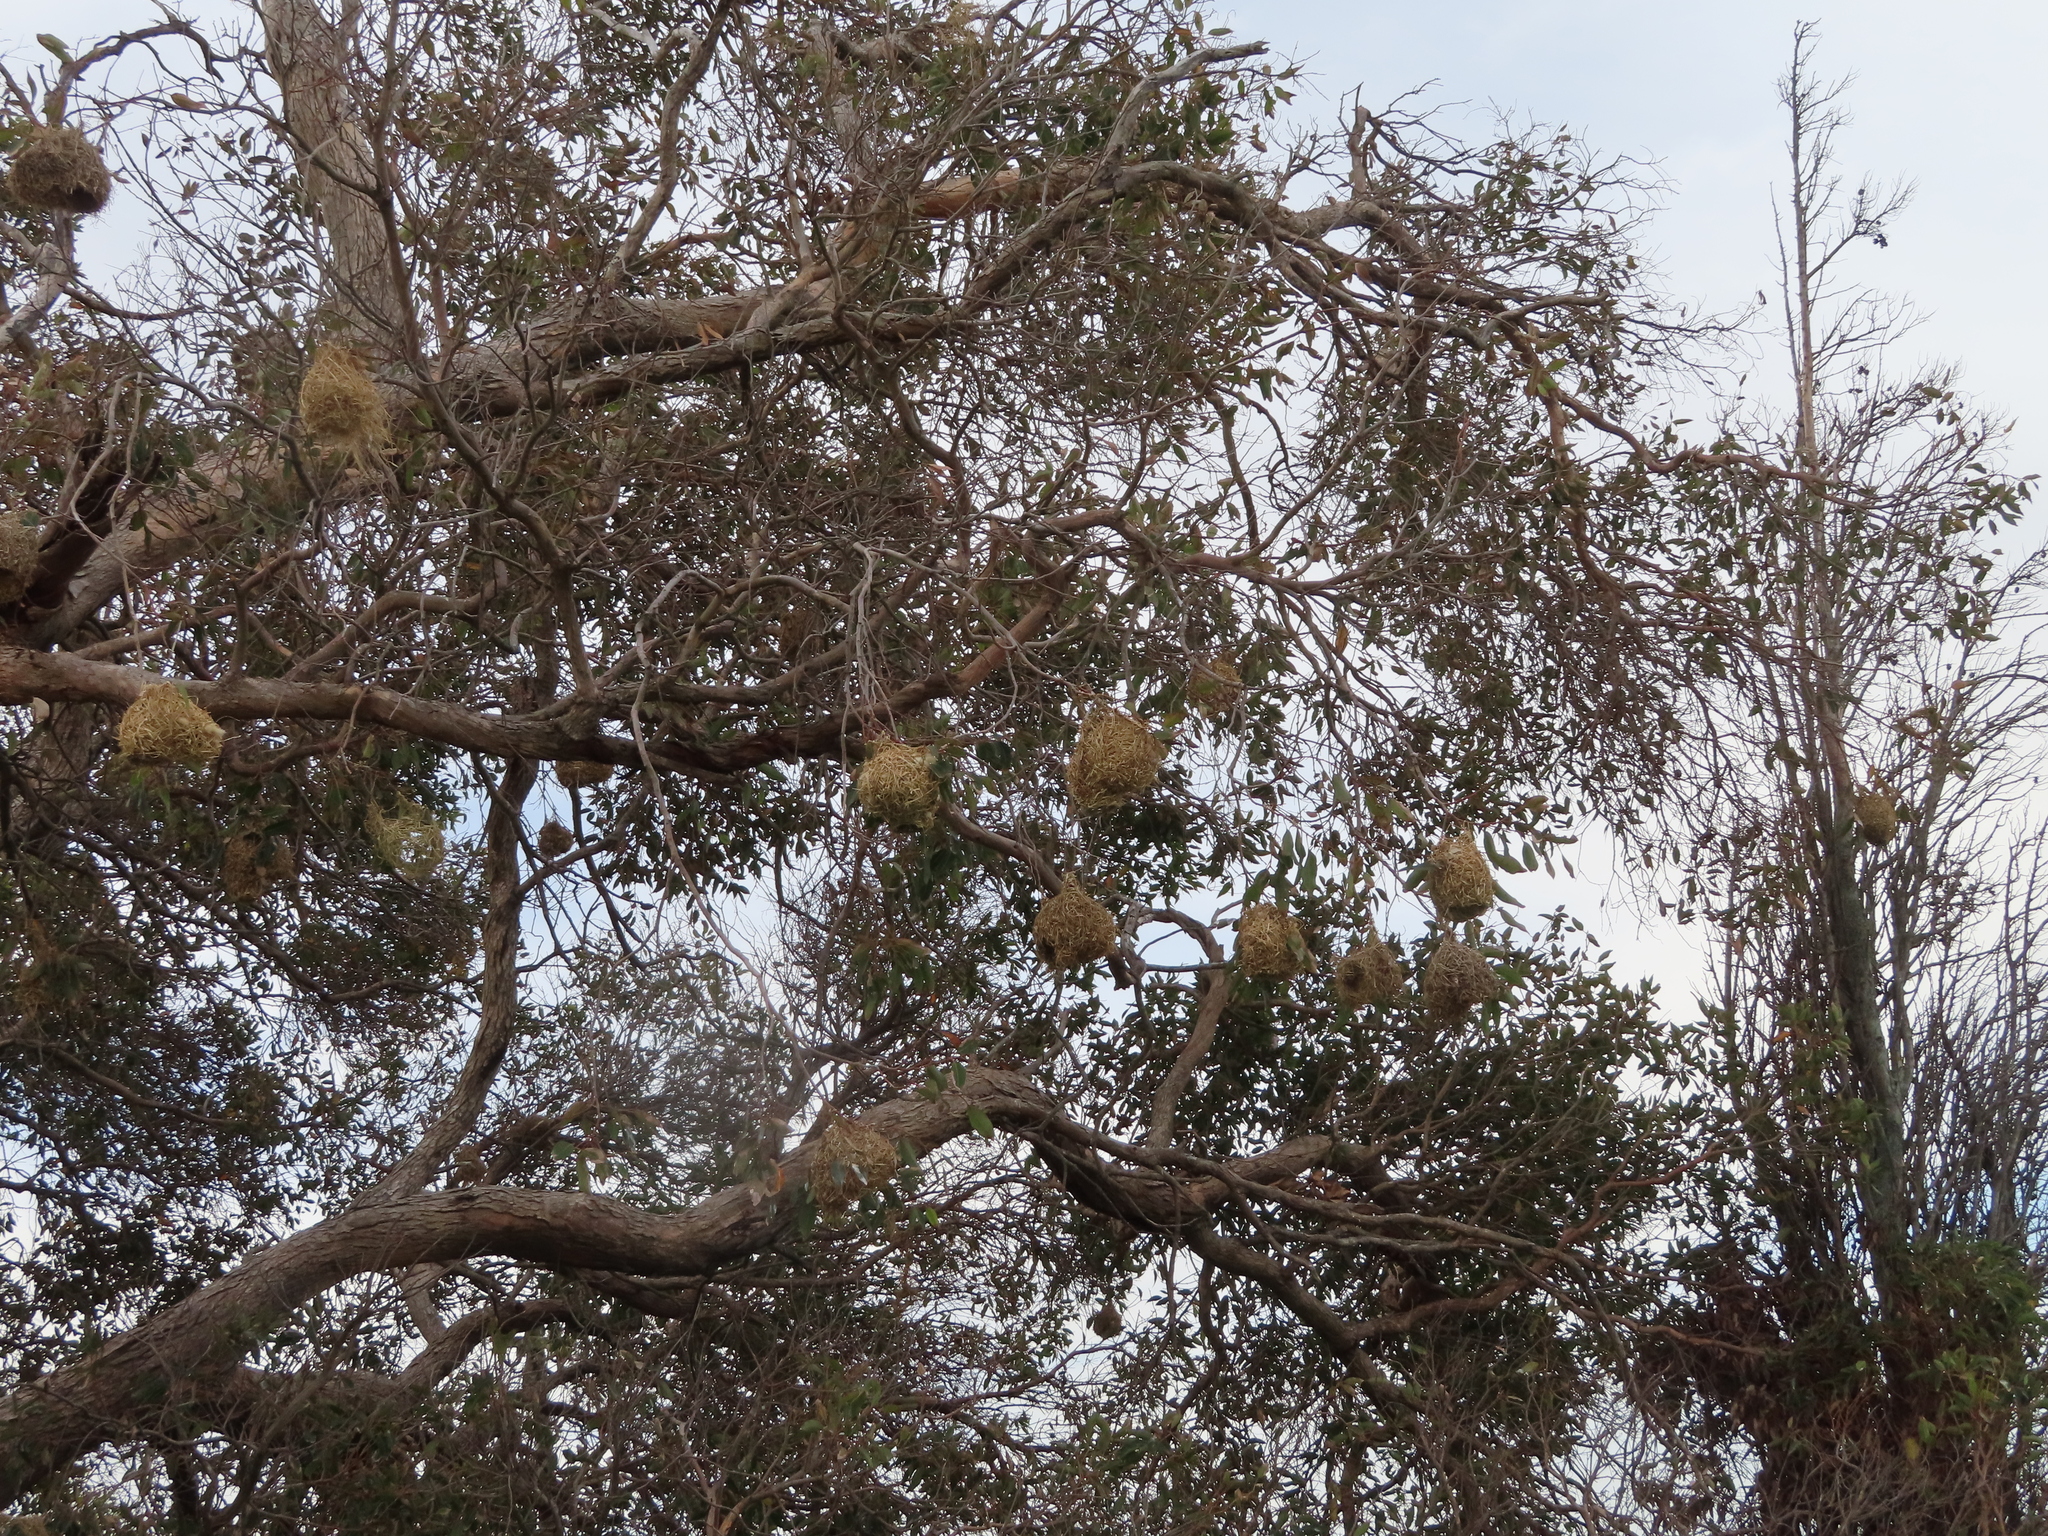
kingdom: Animalia
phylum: Chordata
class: Aves
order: Passeriformes
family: Ploceidae
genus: Ploceus
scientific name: Ploceus capensis
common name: Cape weaver
